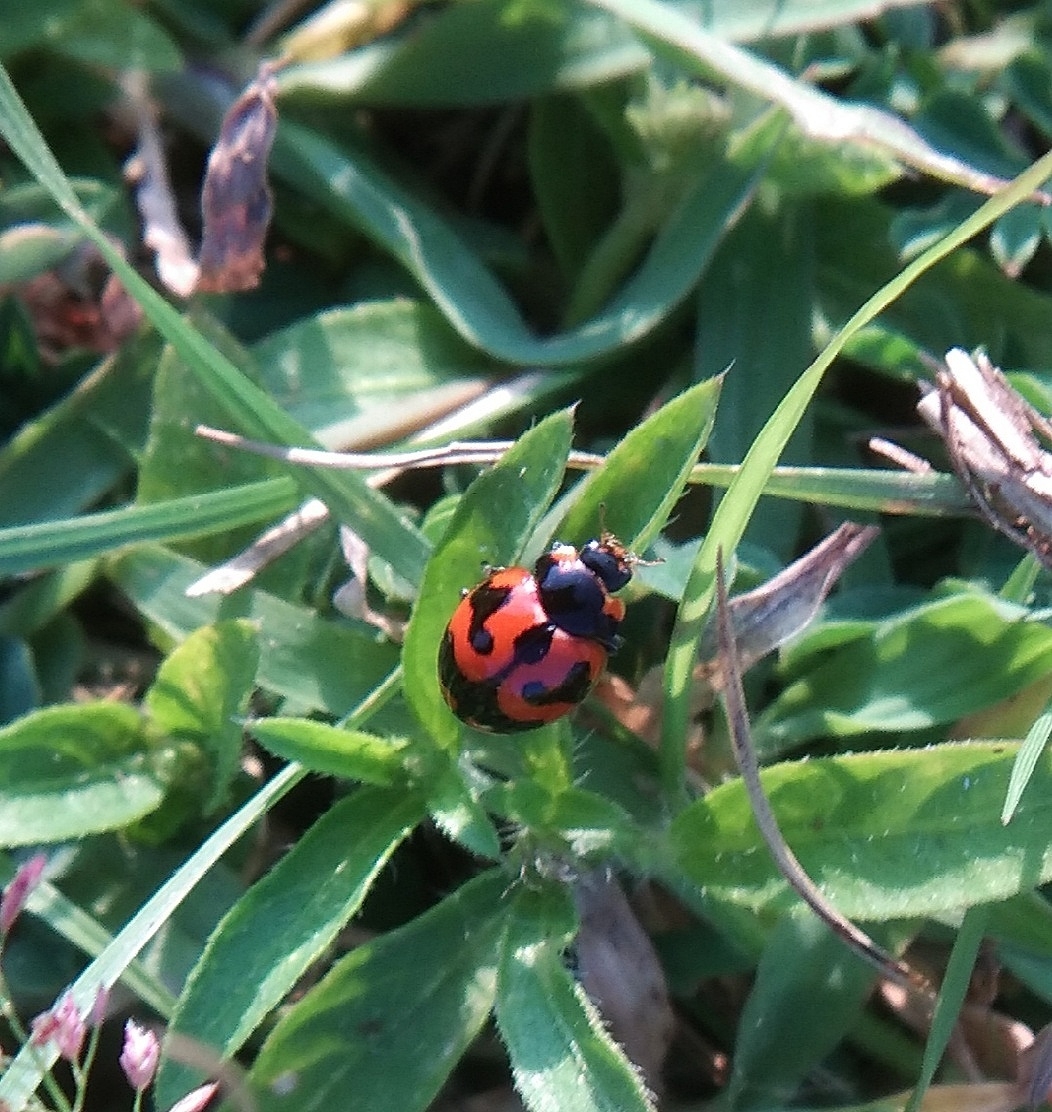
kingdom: Animalia
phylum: Arthropoda
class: Insecta
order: Coleoptera
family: Coccinellidae
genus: Coccinella
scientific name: Coccinella transversalis
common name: Transverse lady beetle
